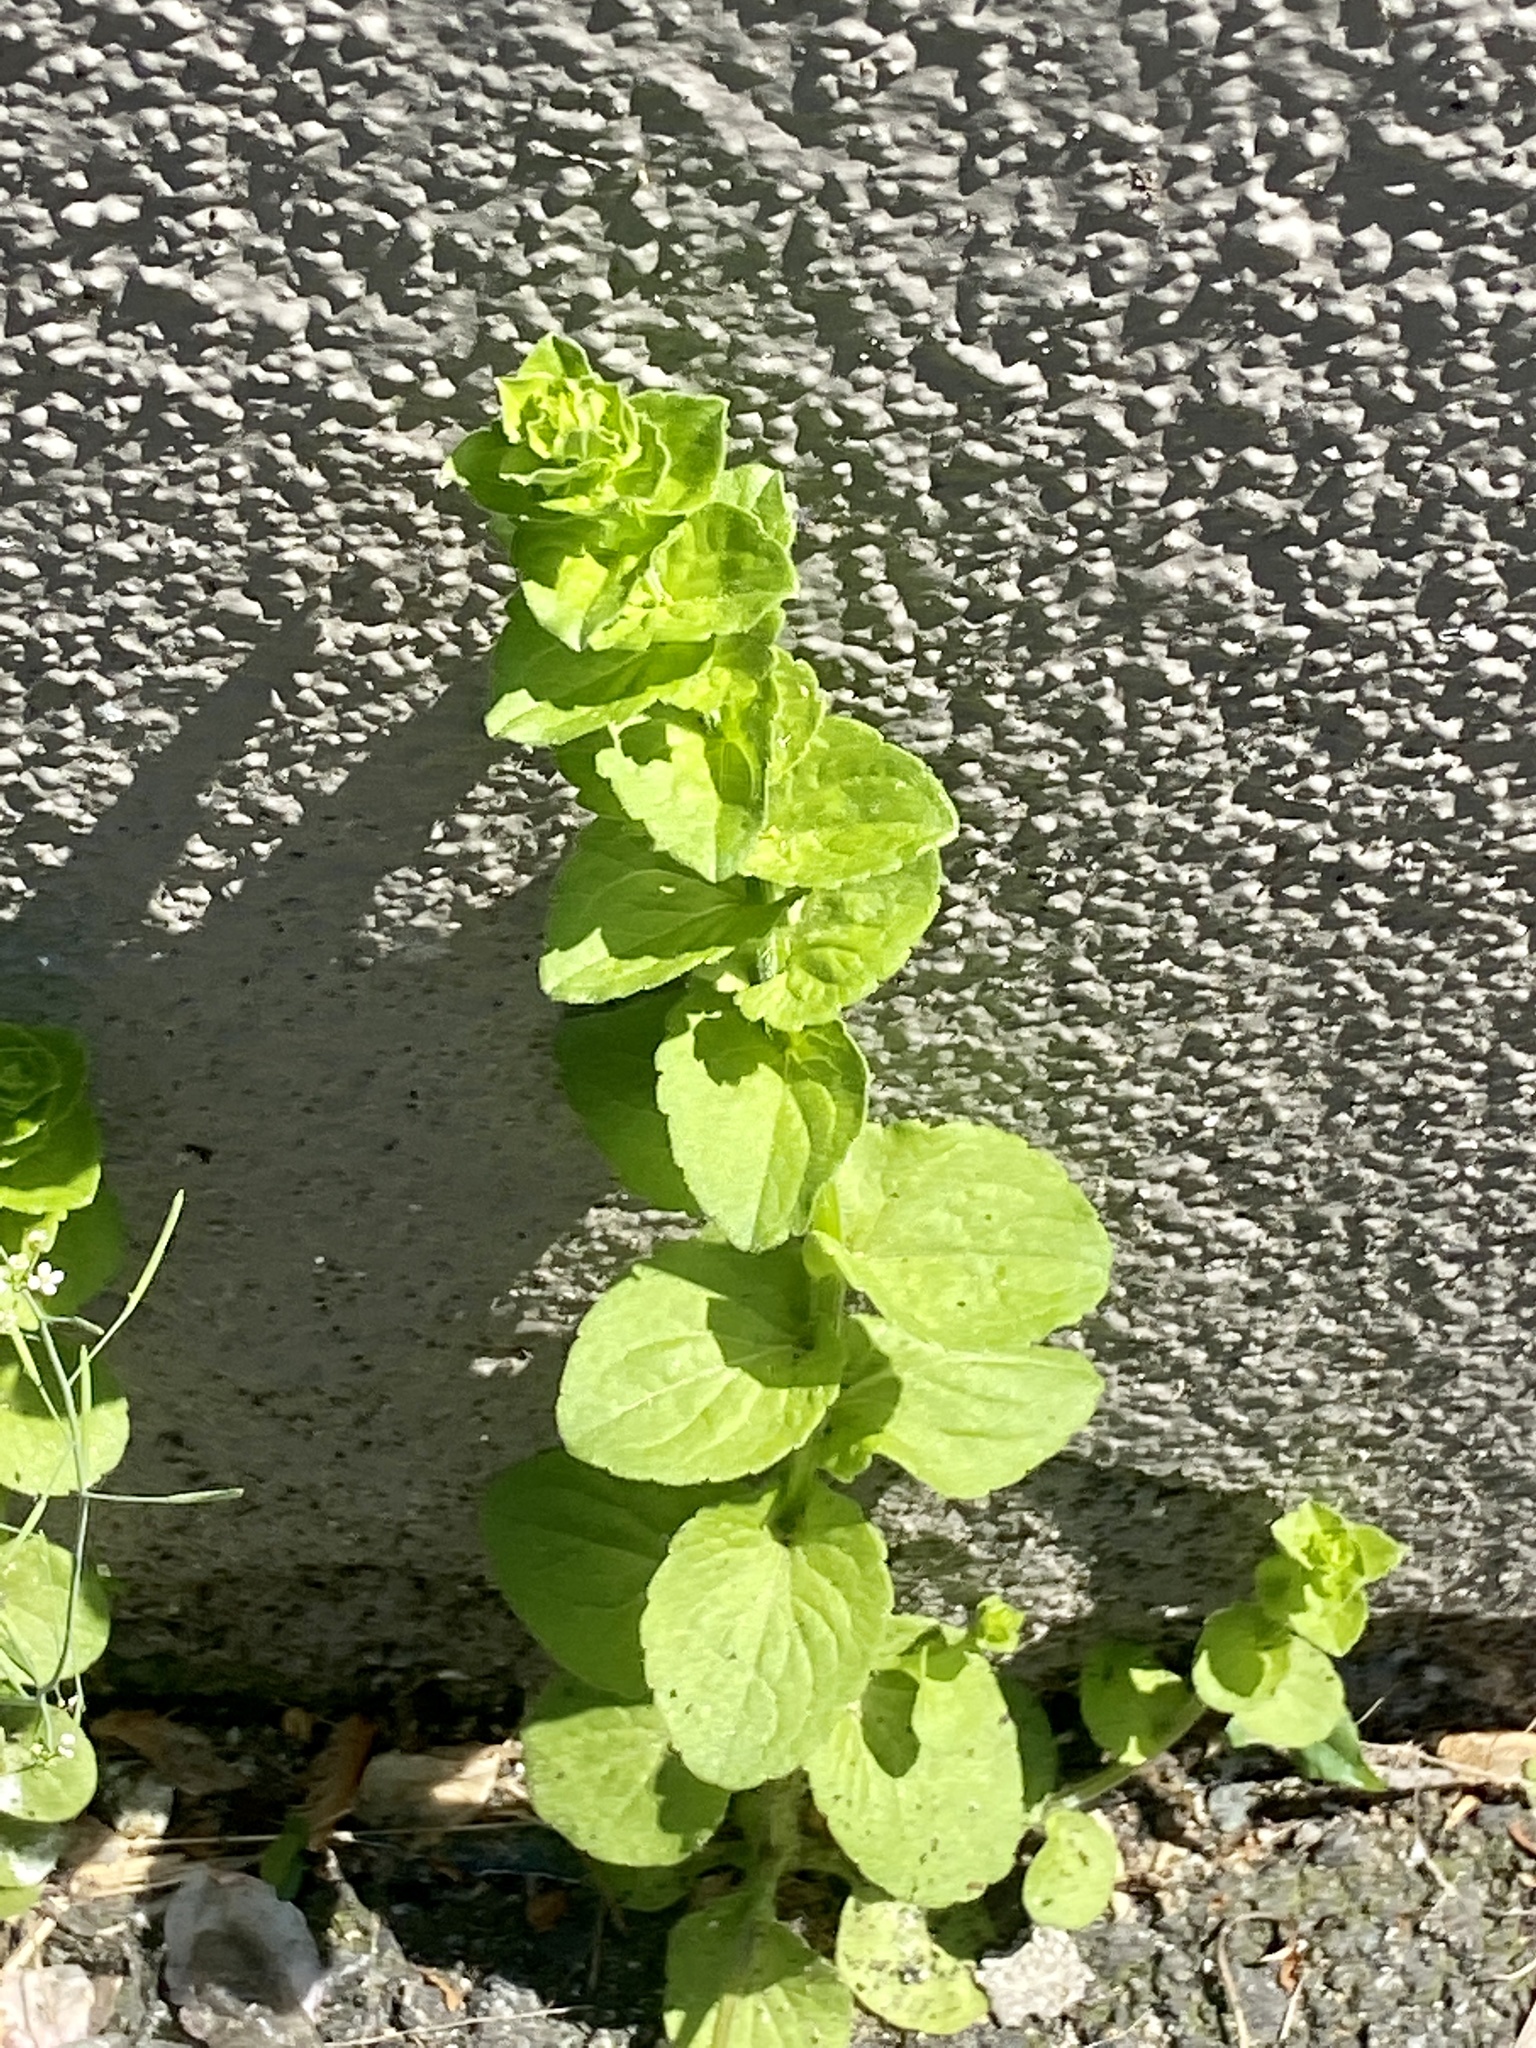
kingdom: Plantae
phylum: Tracheophyta
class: Magnoliopsida
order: Asterales
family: Campanulaceae
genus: Triodanis
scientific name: Triodanis perfoliata
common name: Clasping venus' looking-glass
